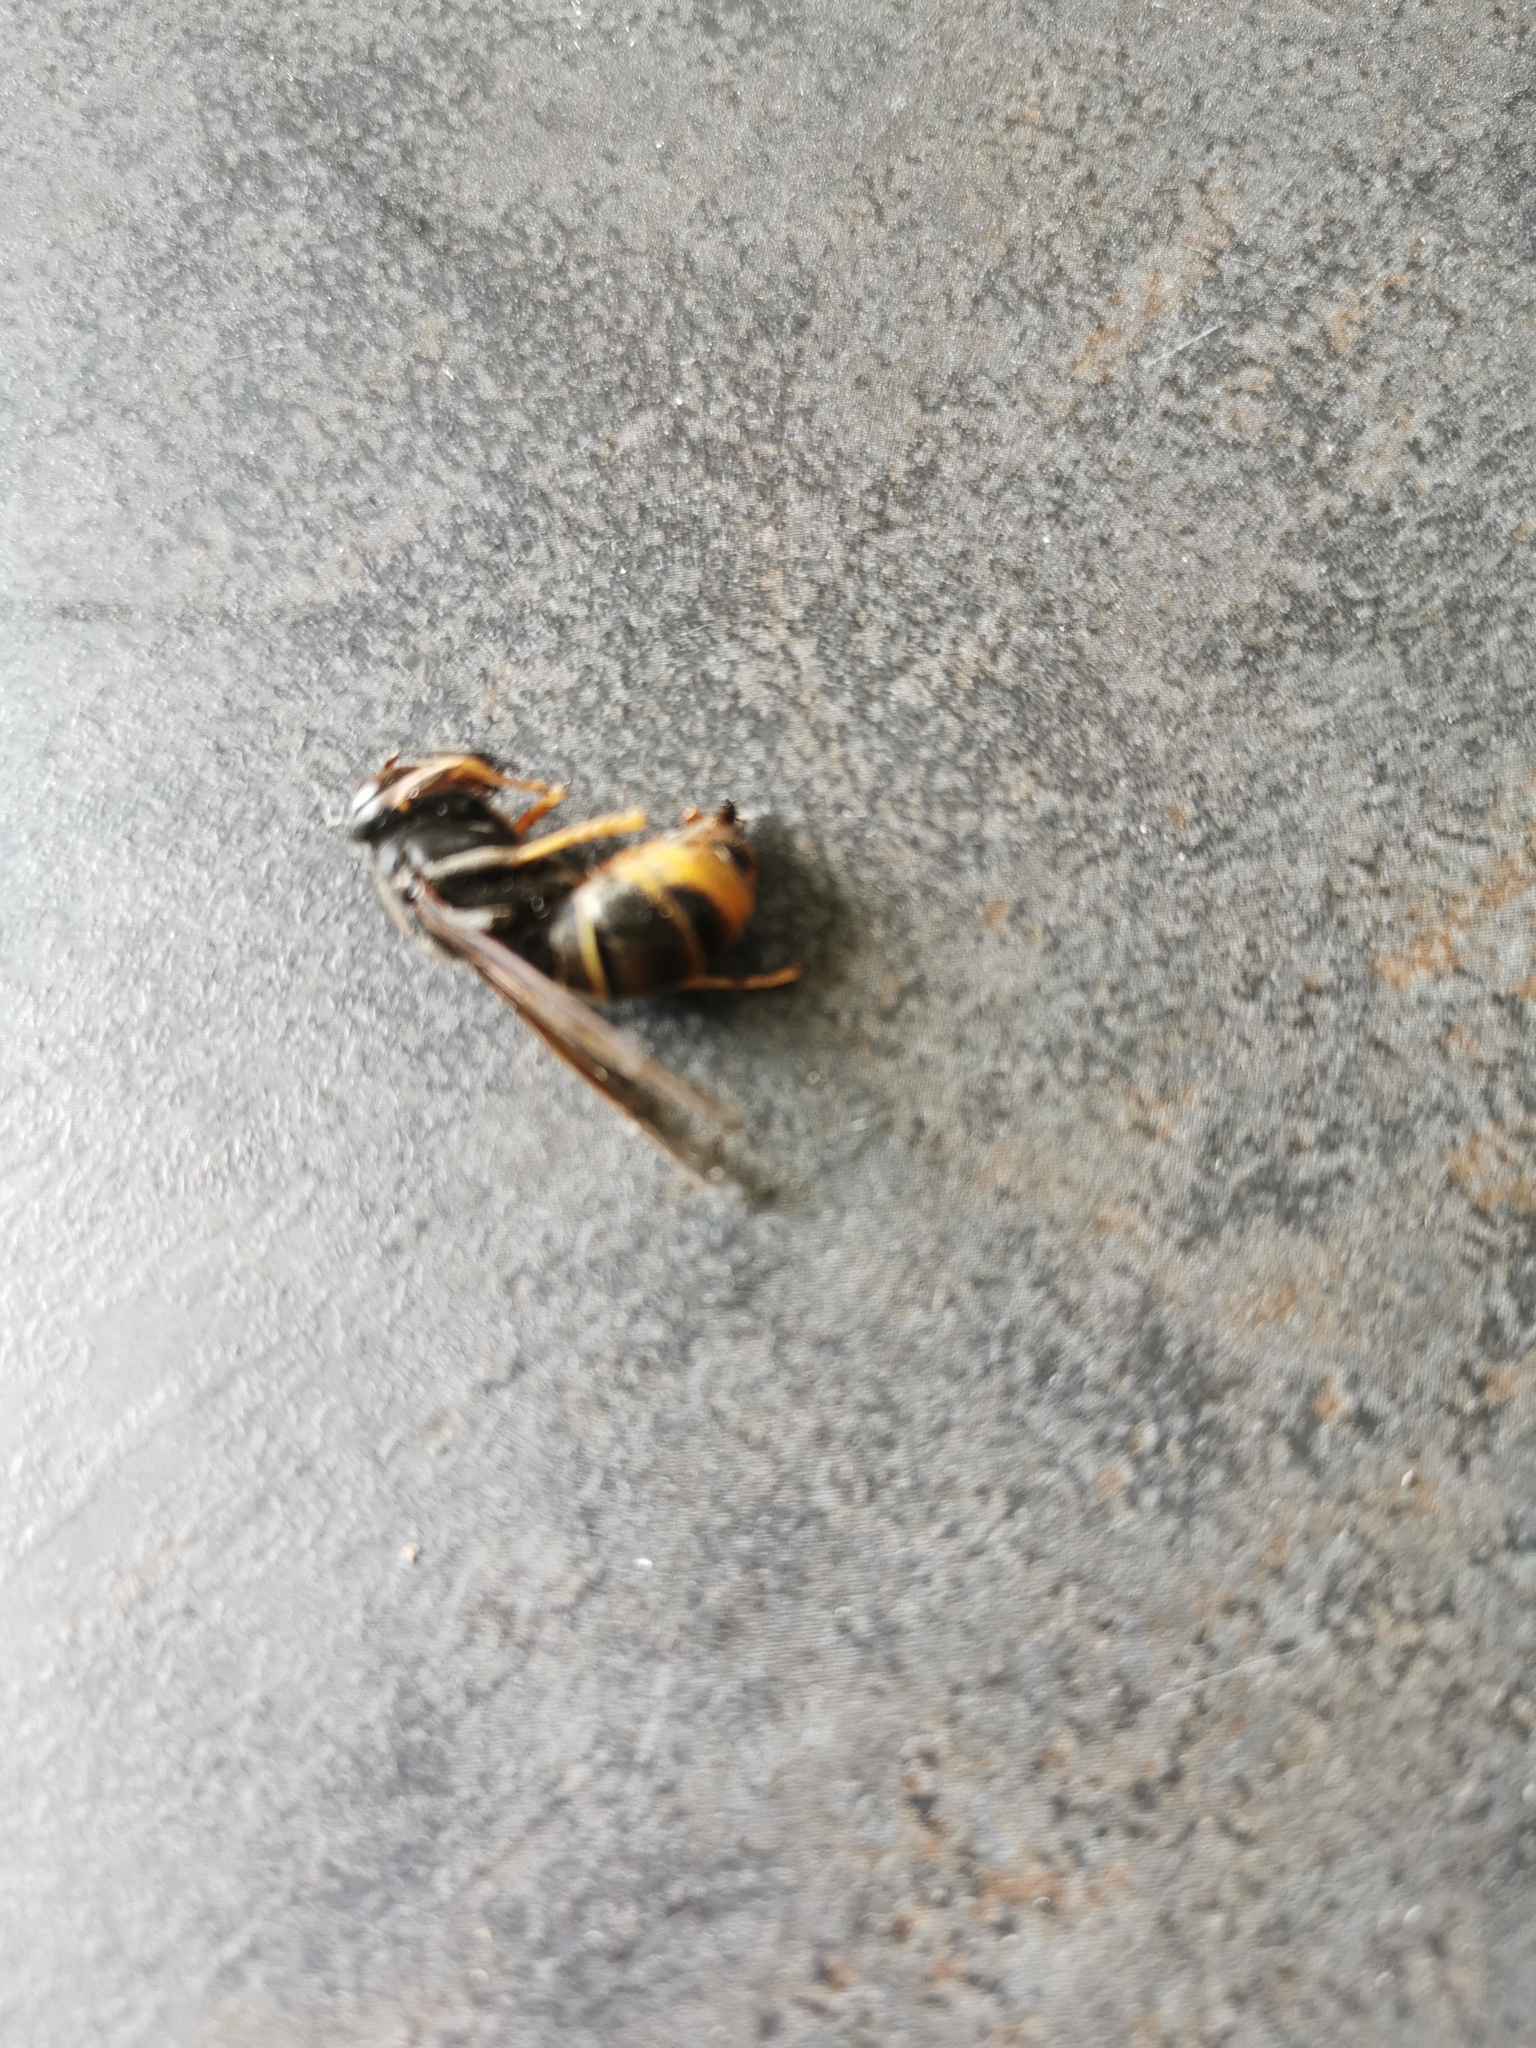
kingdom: Animalia
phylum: Arthropoda
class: Insecta
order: Hymenoptera
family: Vespidae
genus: Vespa
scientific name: Vespa velutina
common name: Asian hornet
